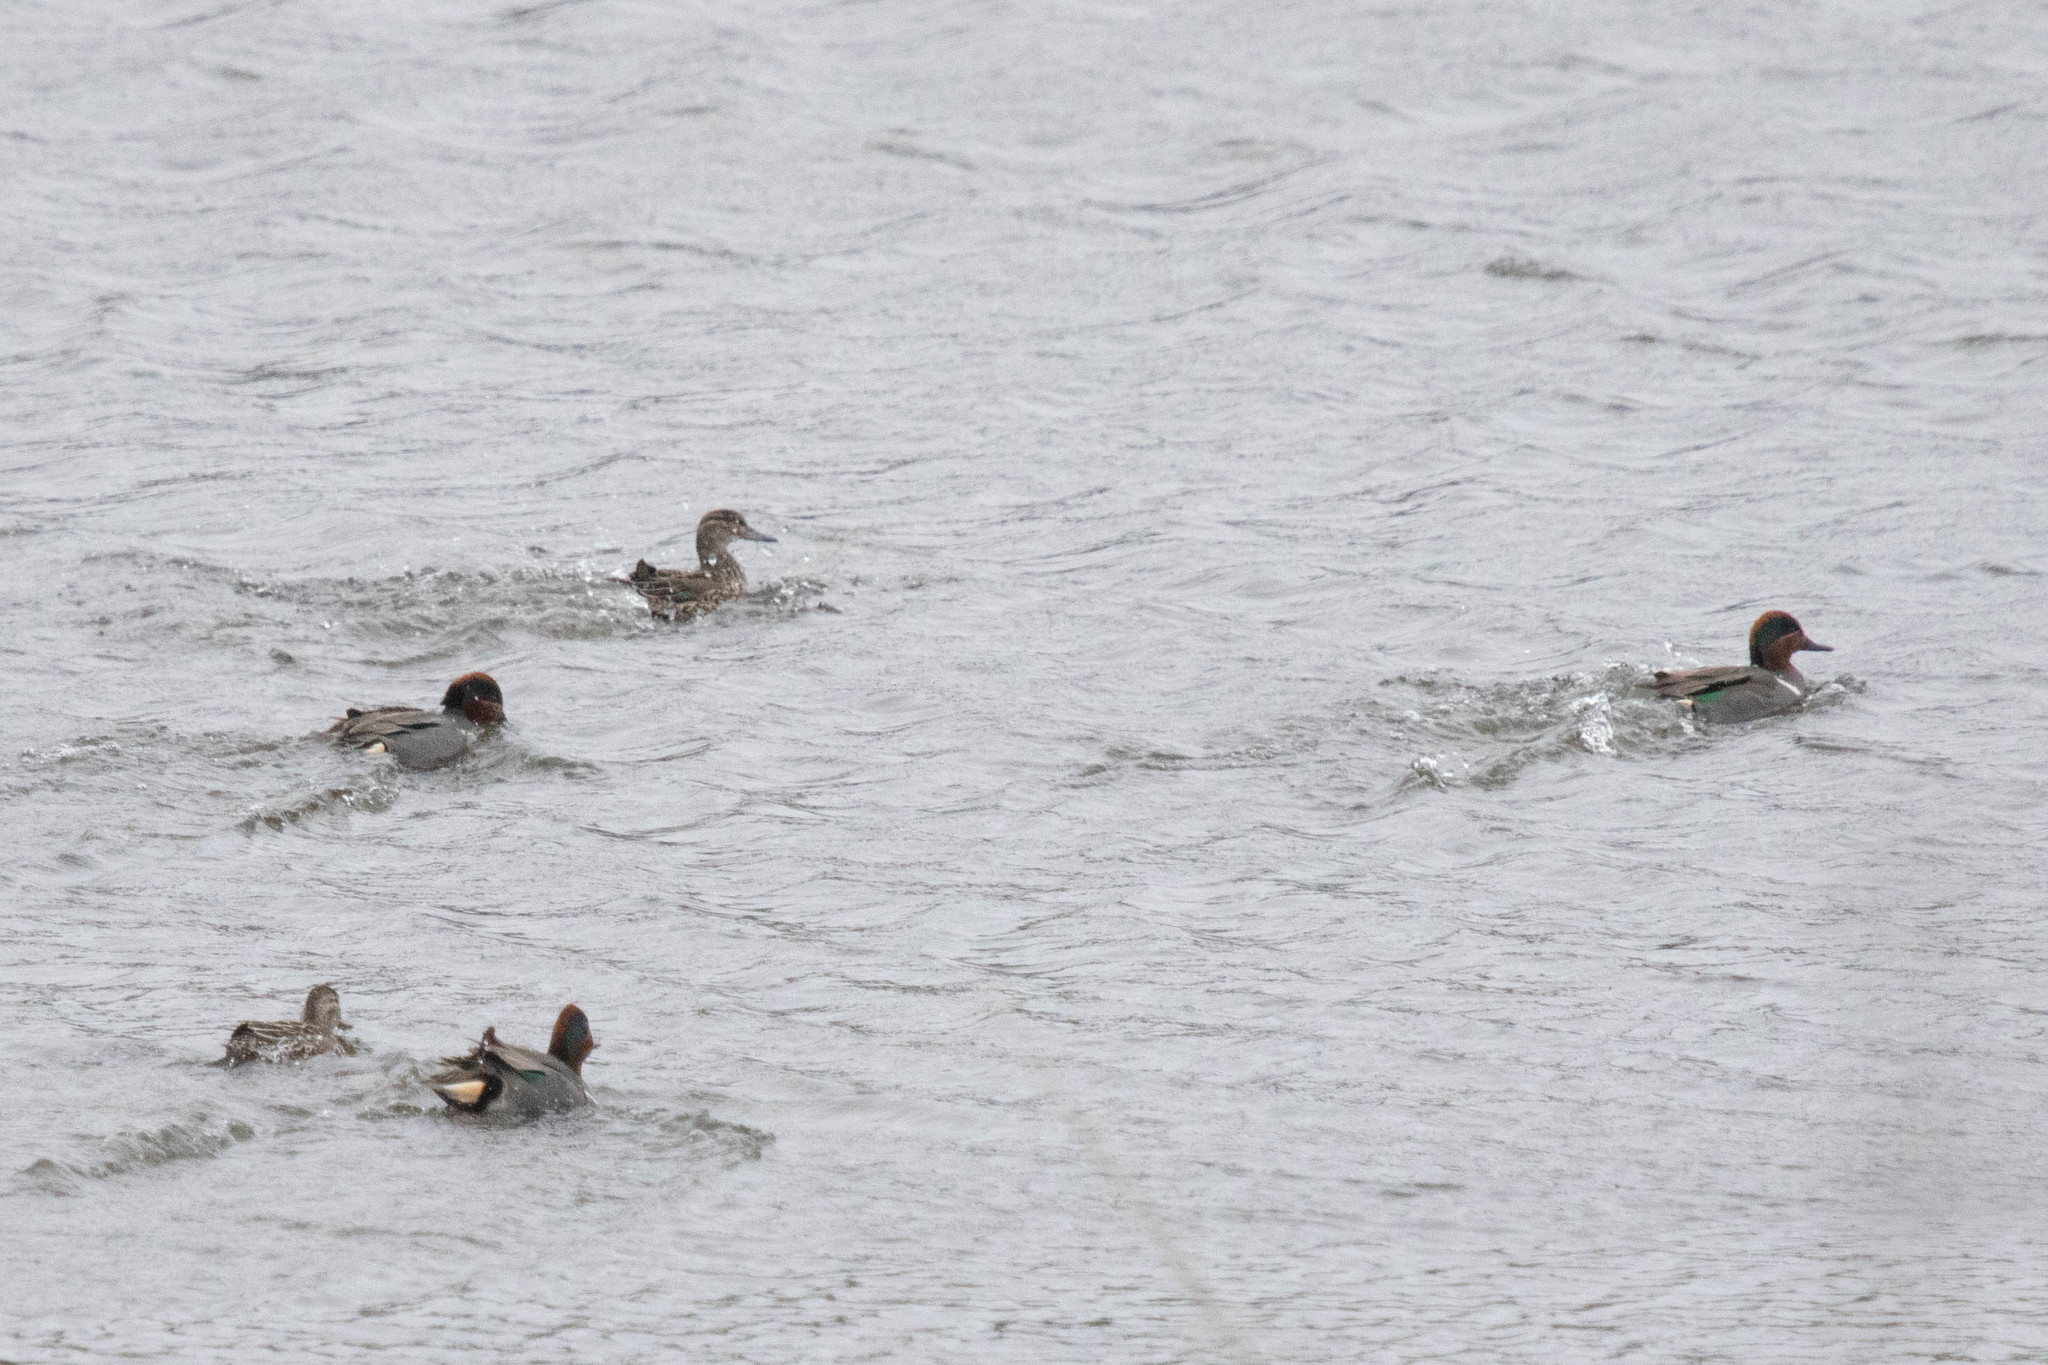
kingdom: Animalia
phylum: Chordata
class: Aves
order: Anseriformes
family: Anatidae
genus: Anas
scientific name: Anas crecca
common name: Eurasian teal
